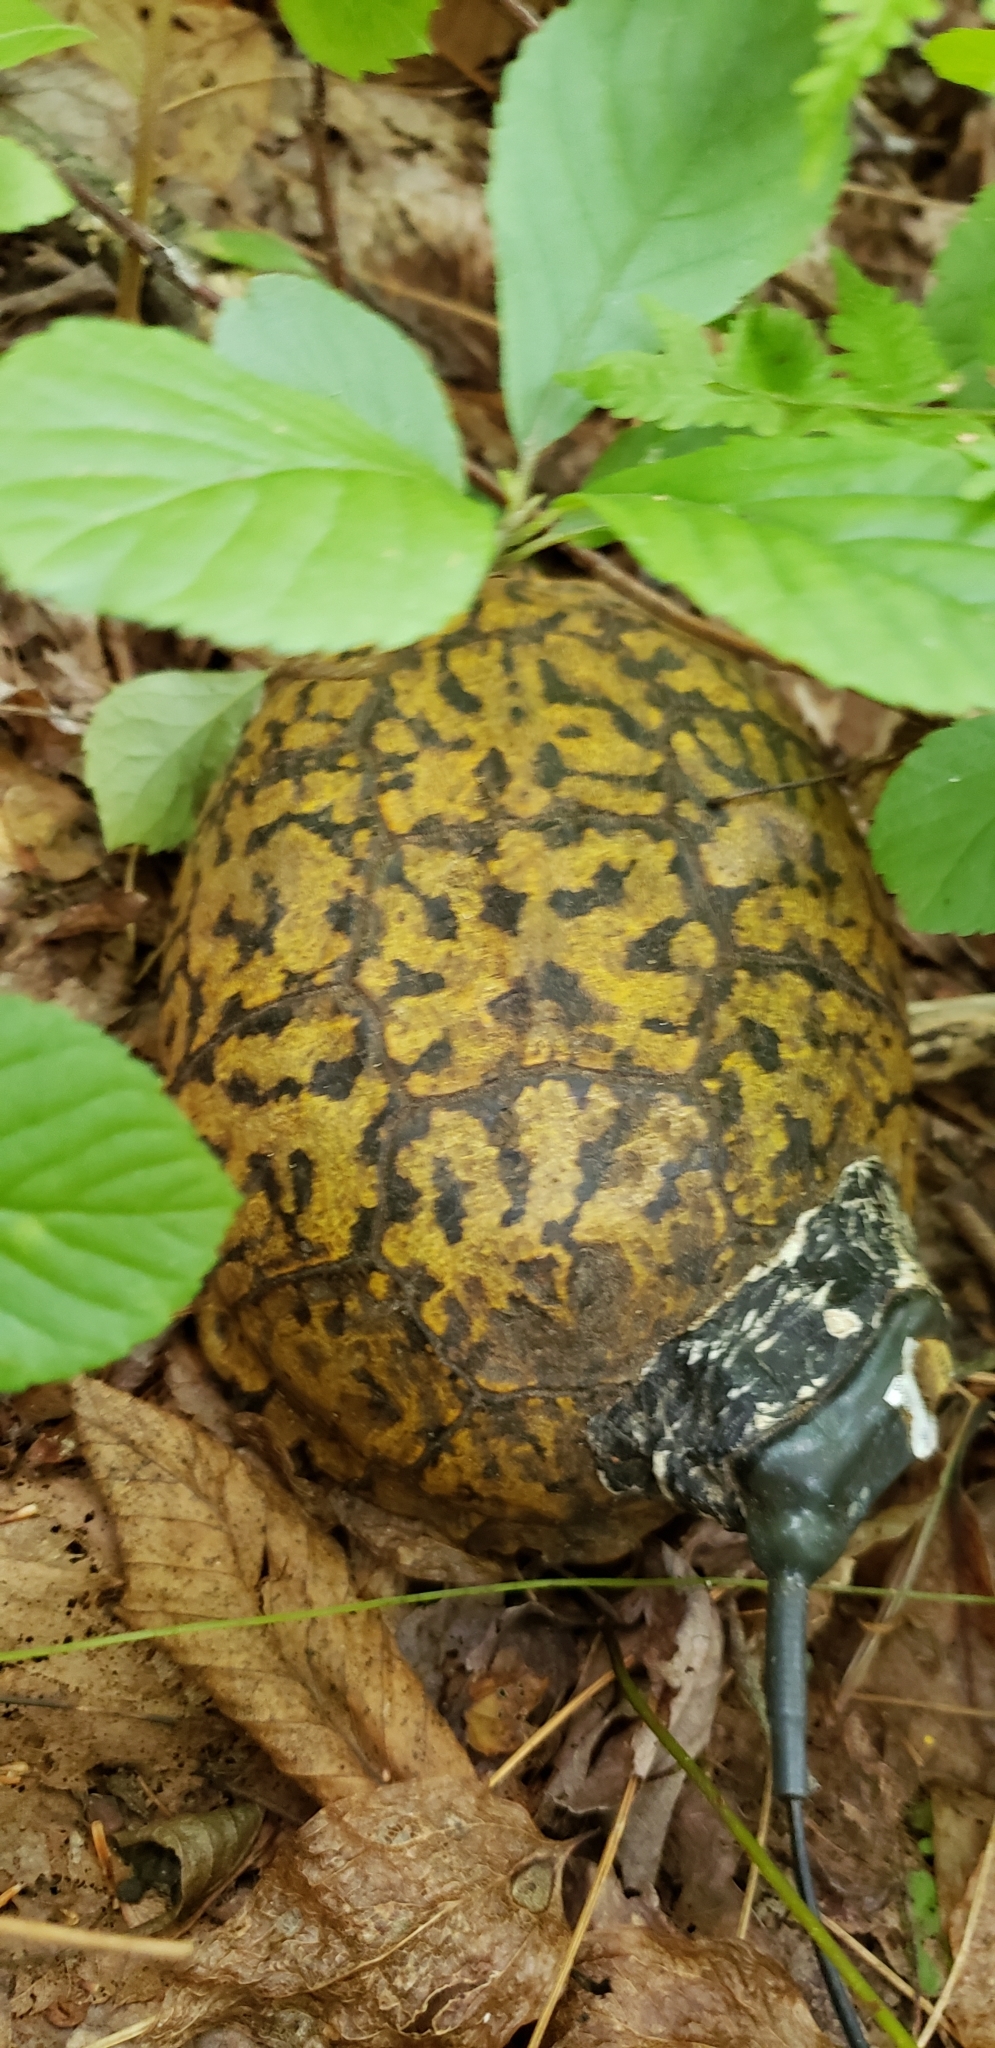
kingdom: Animalia
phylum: Chordata
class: Testudines
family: Emydidae
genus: Terrapene
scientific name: Terrapene carolina
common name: Common box turtle
